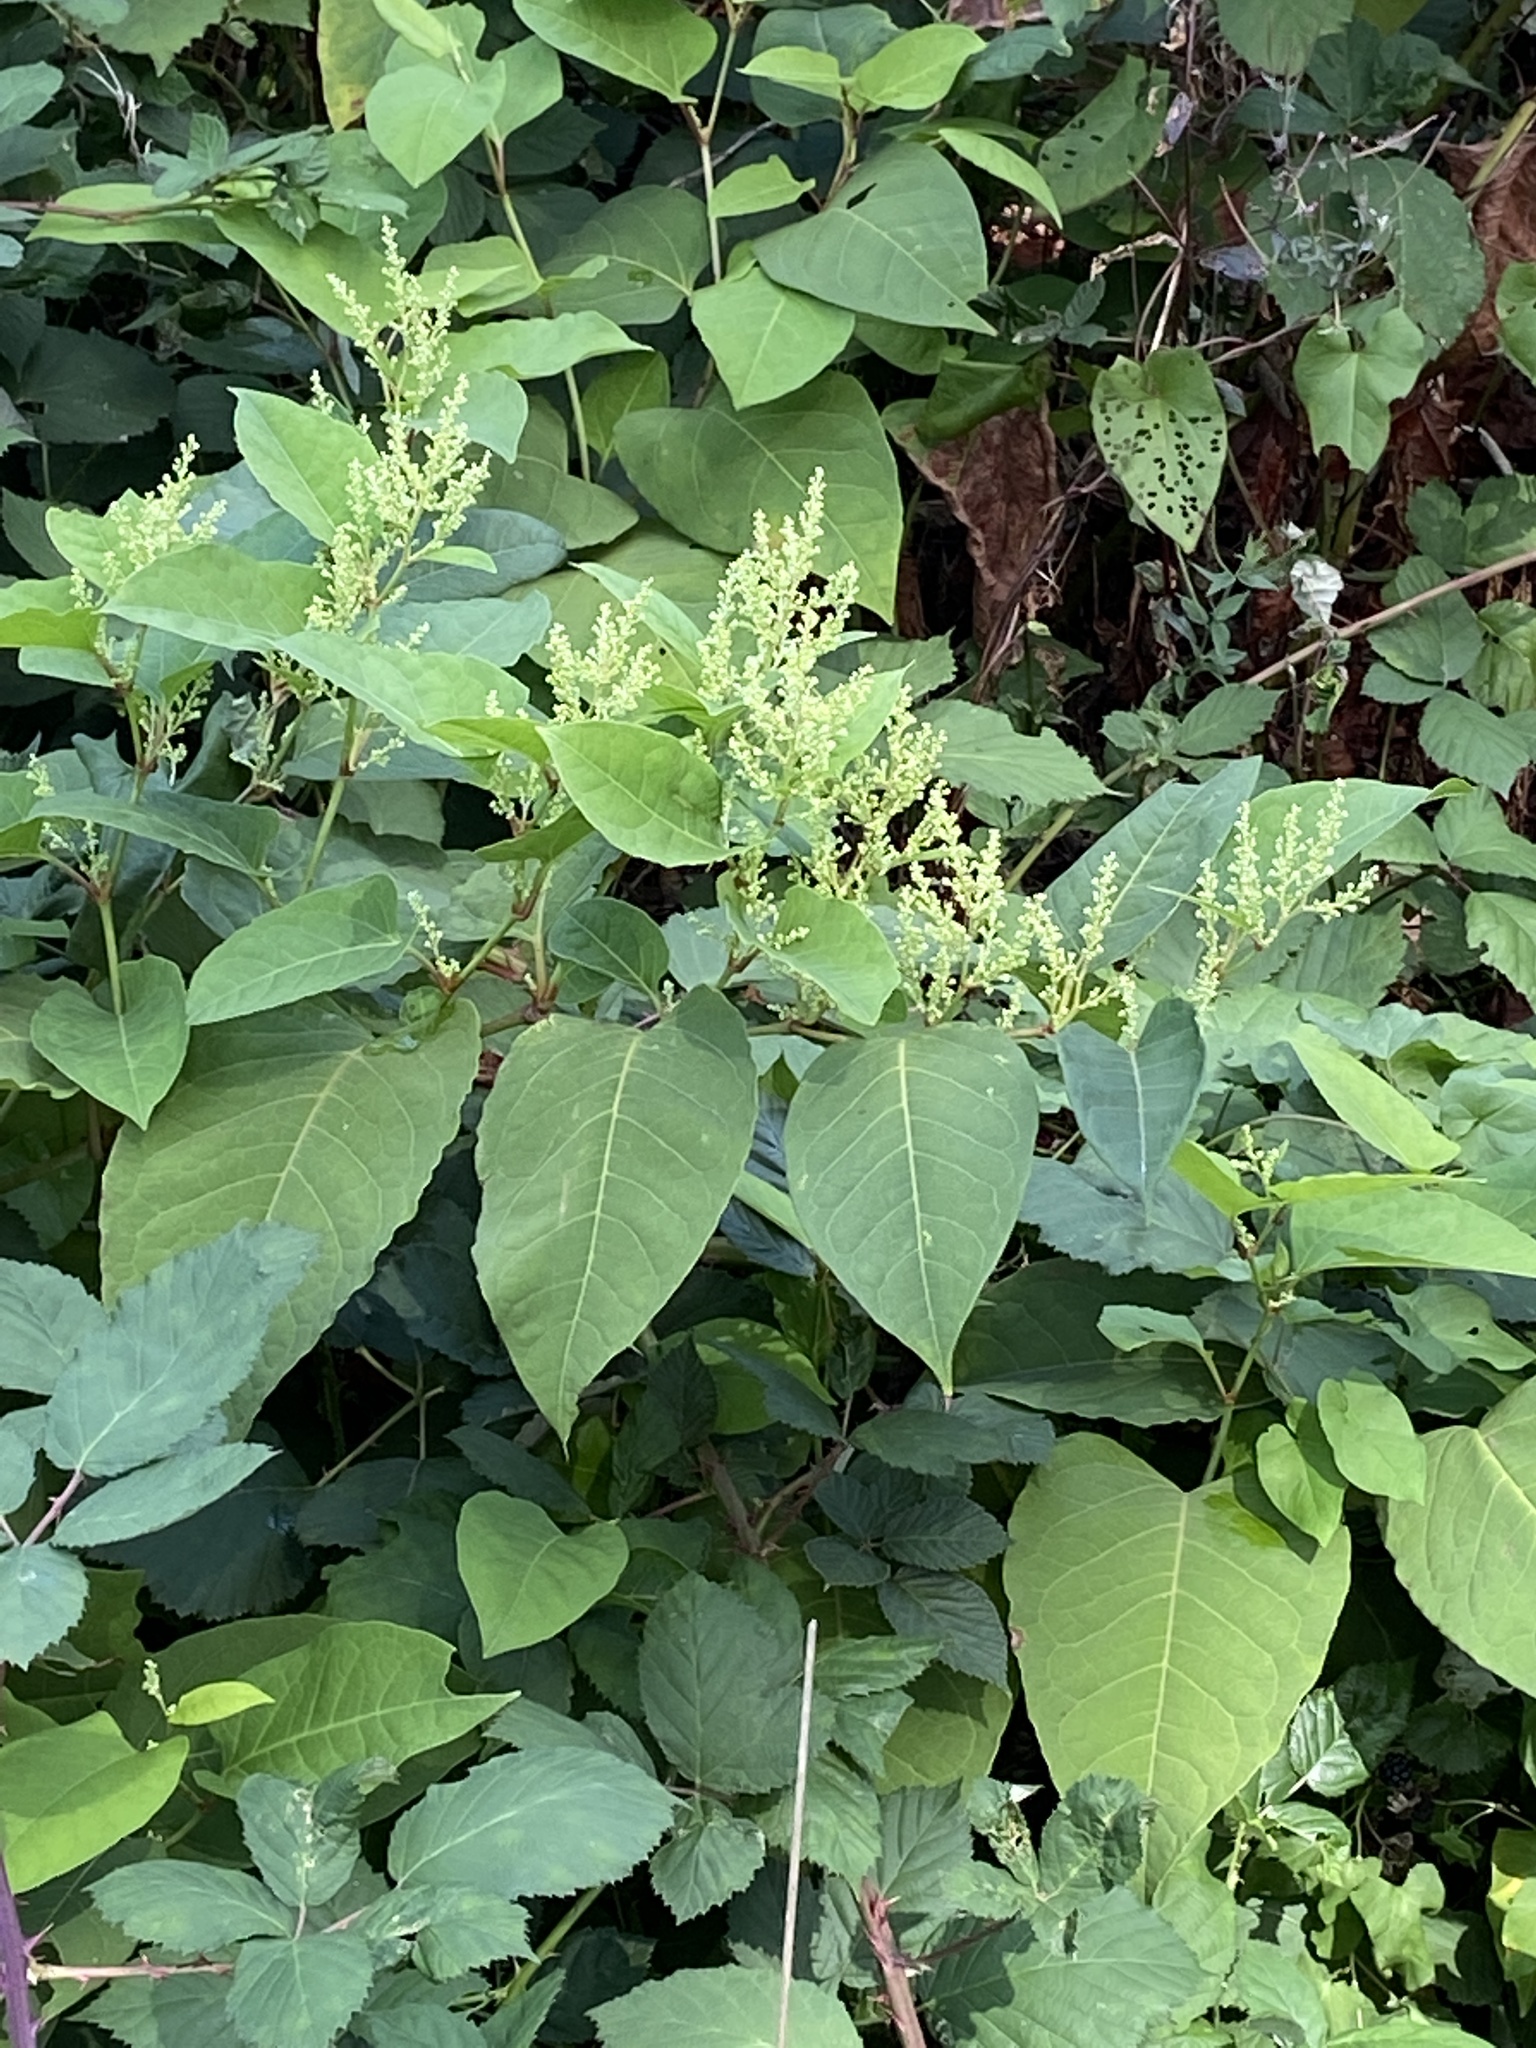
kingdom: Plantae
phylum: Tracheophyta
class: Magnoliopsida
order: Caryophyllales
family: Polygonaceae
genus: Reynoutria
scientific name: Reynoutria bohemica
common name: Bohemian knotweed
